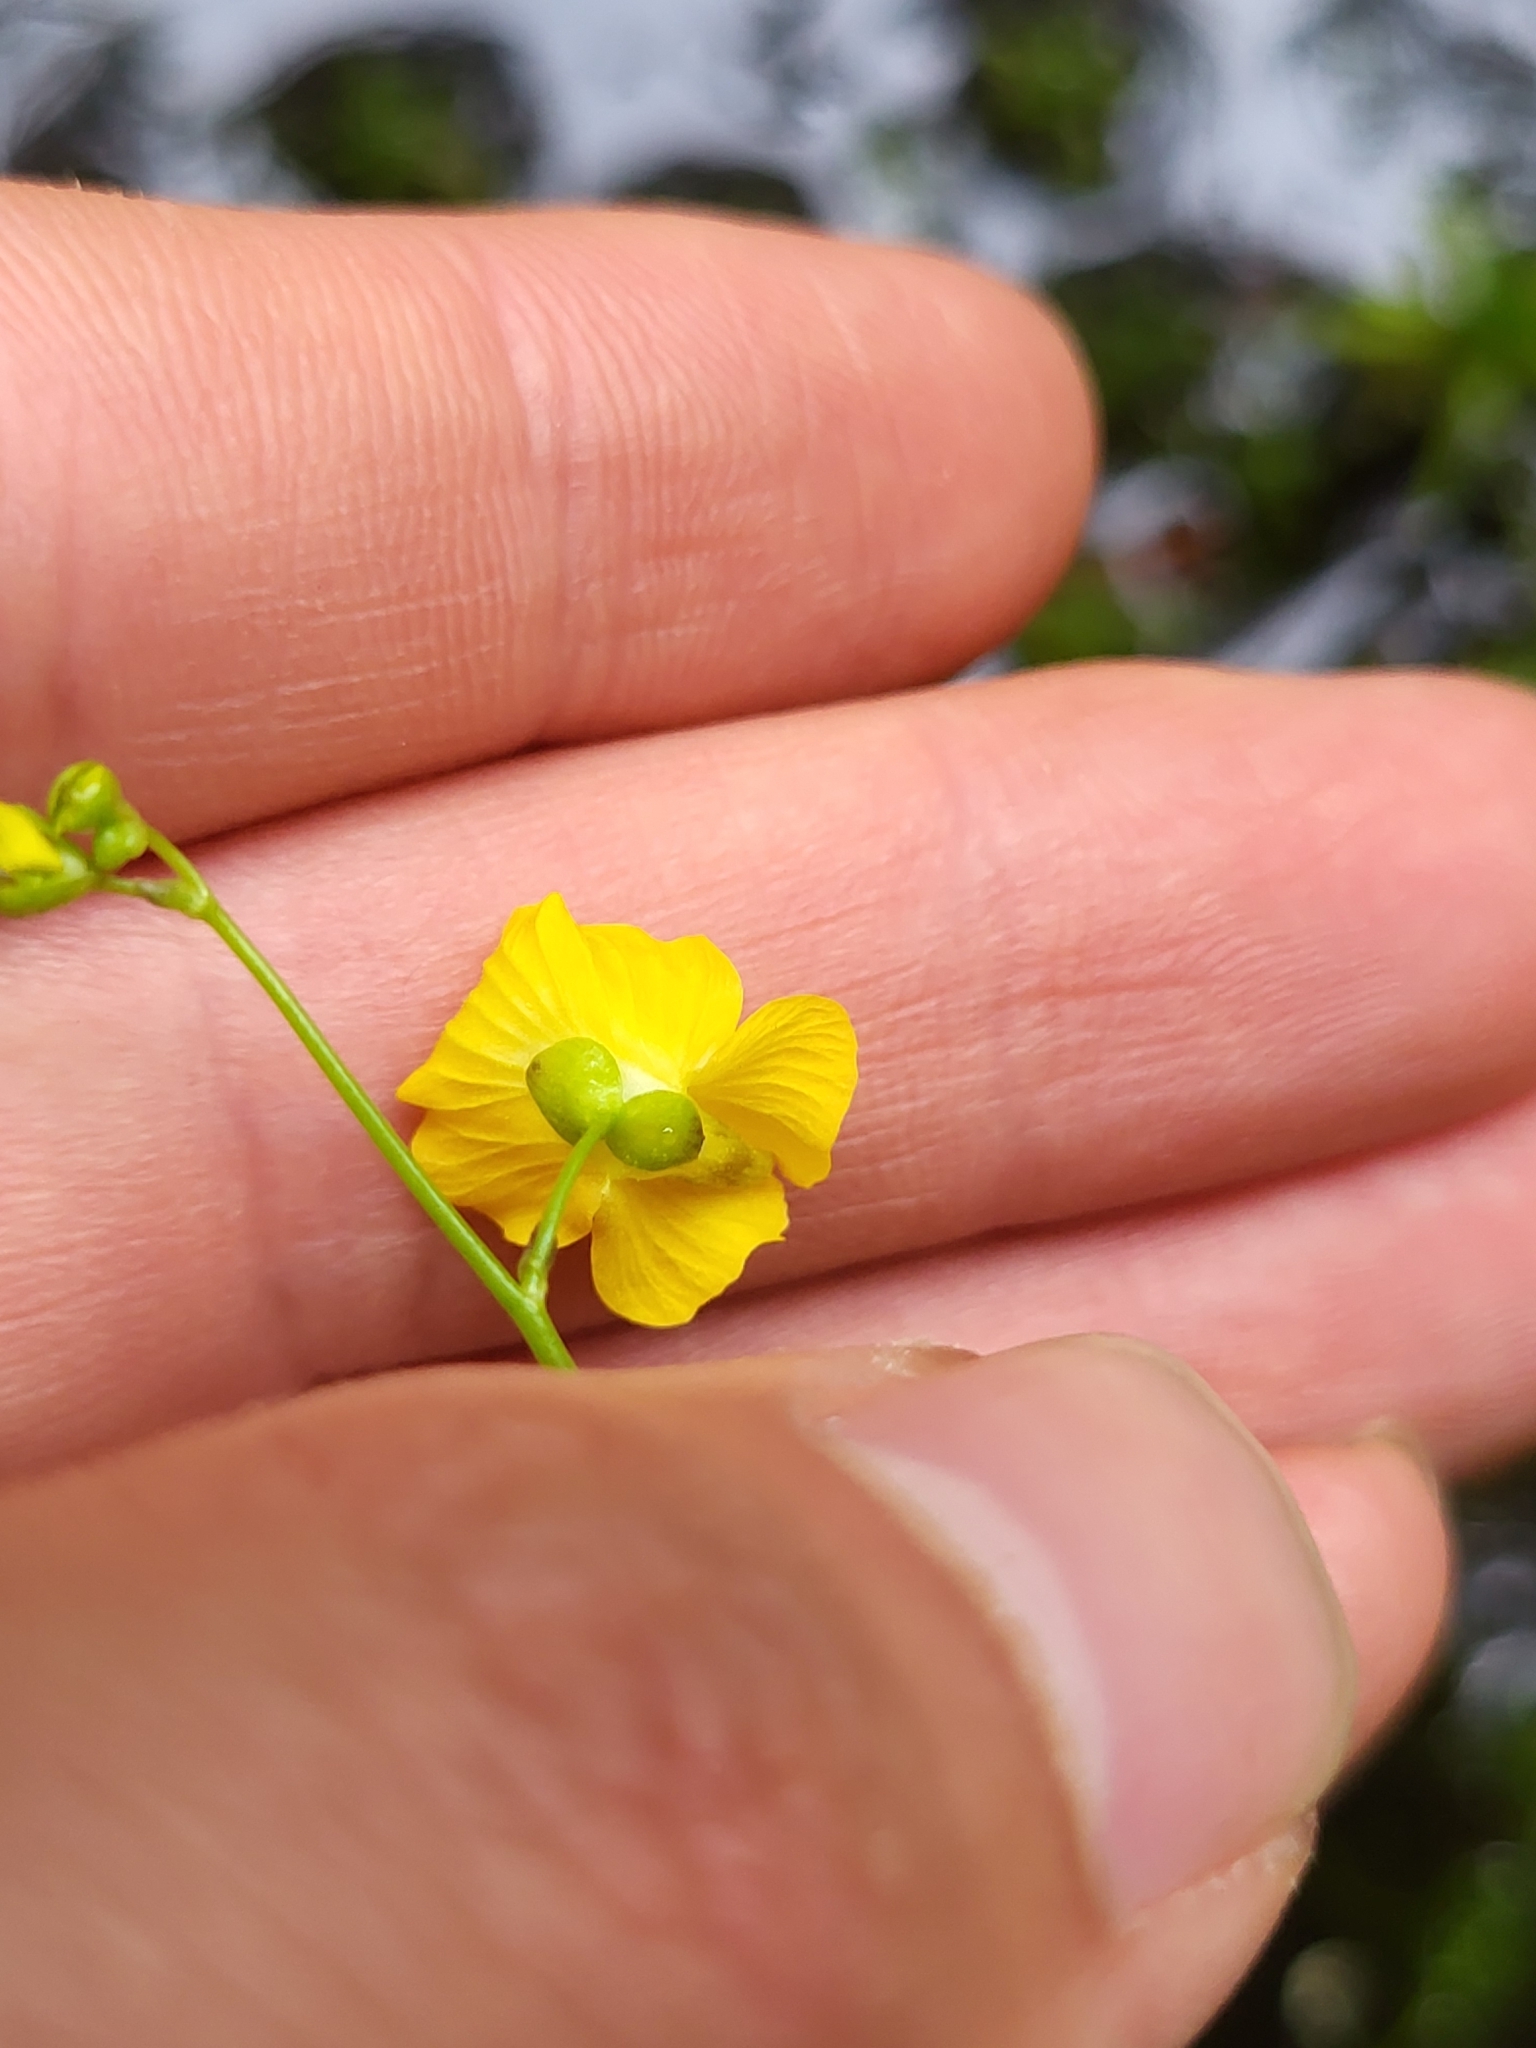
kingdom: Plantae
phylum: Tracheophyta
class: Magnoliopsida
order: Lamiales
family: Lentibulariaceae
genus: Utricularia
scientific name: Utricularia striata
